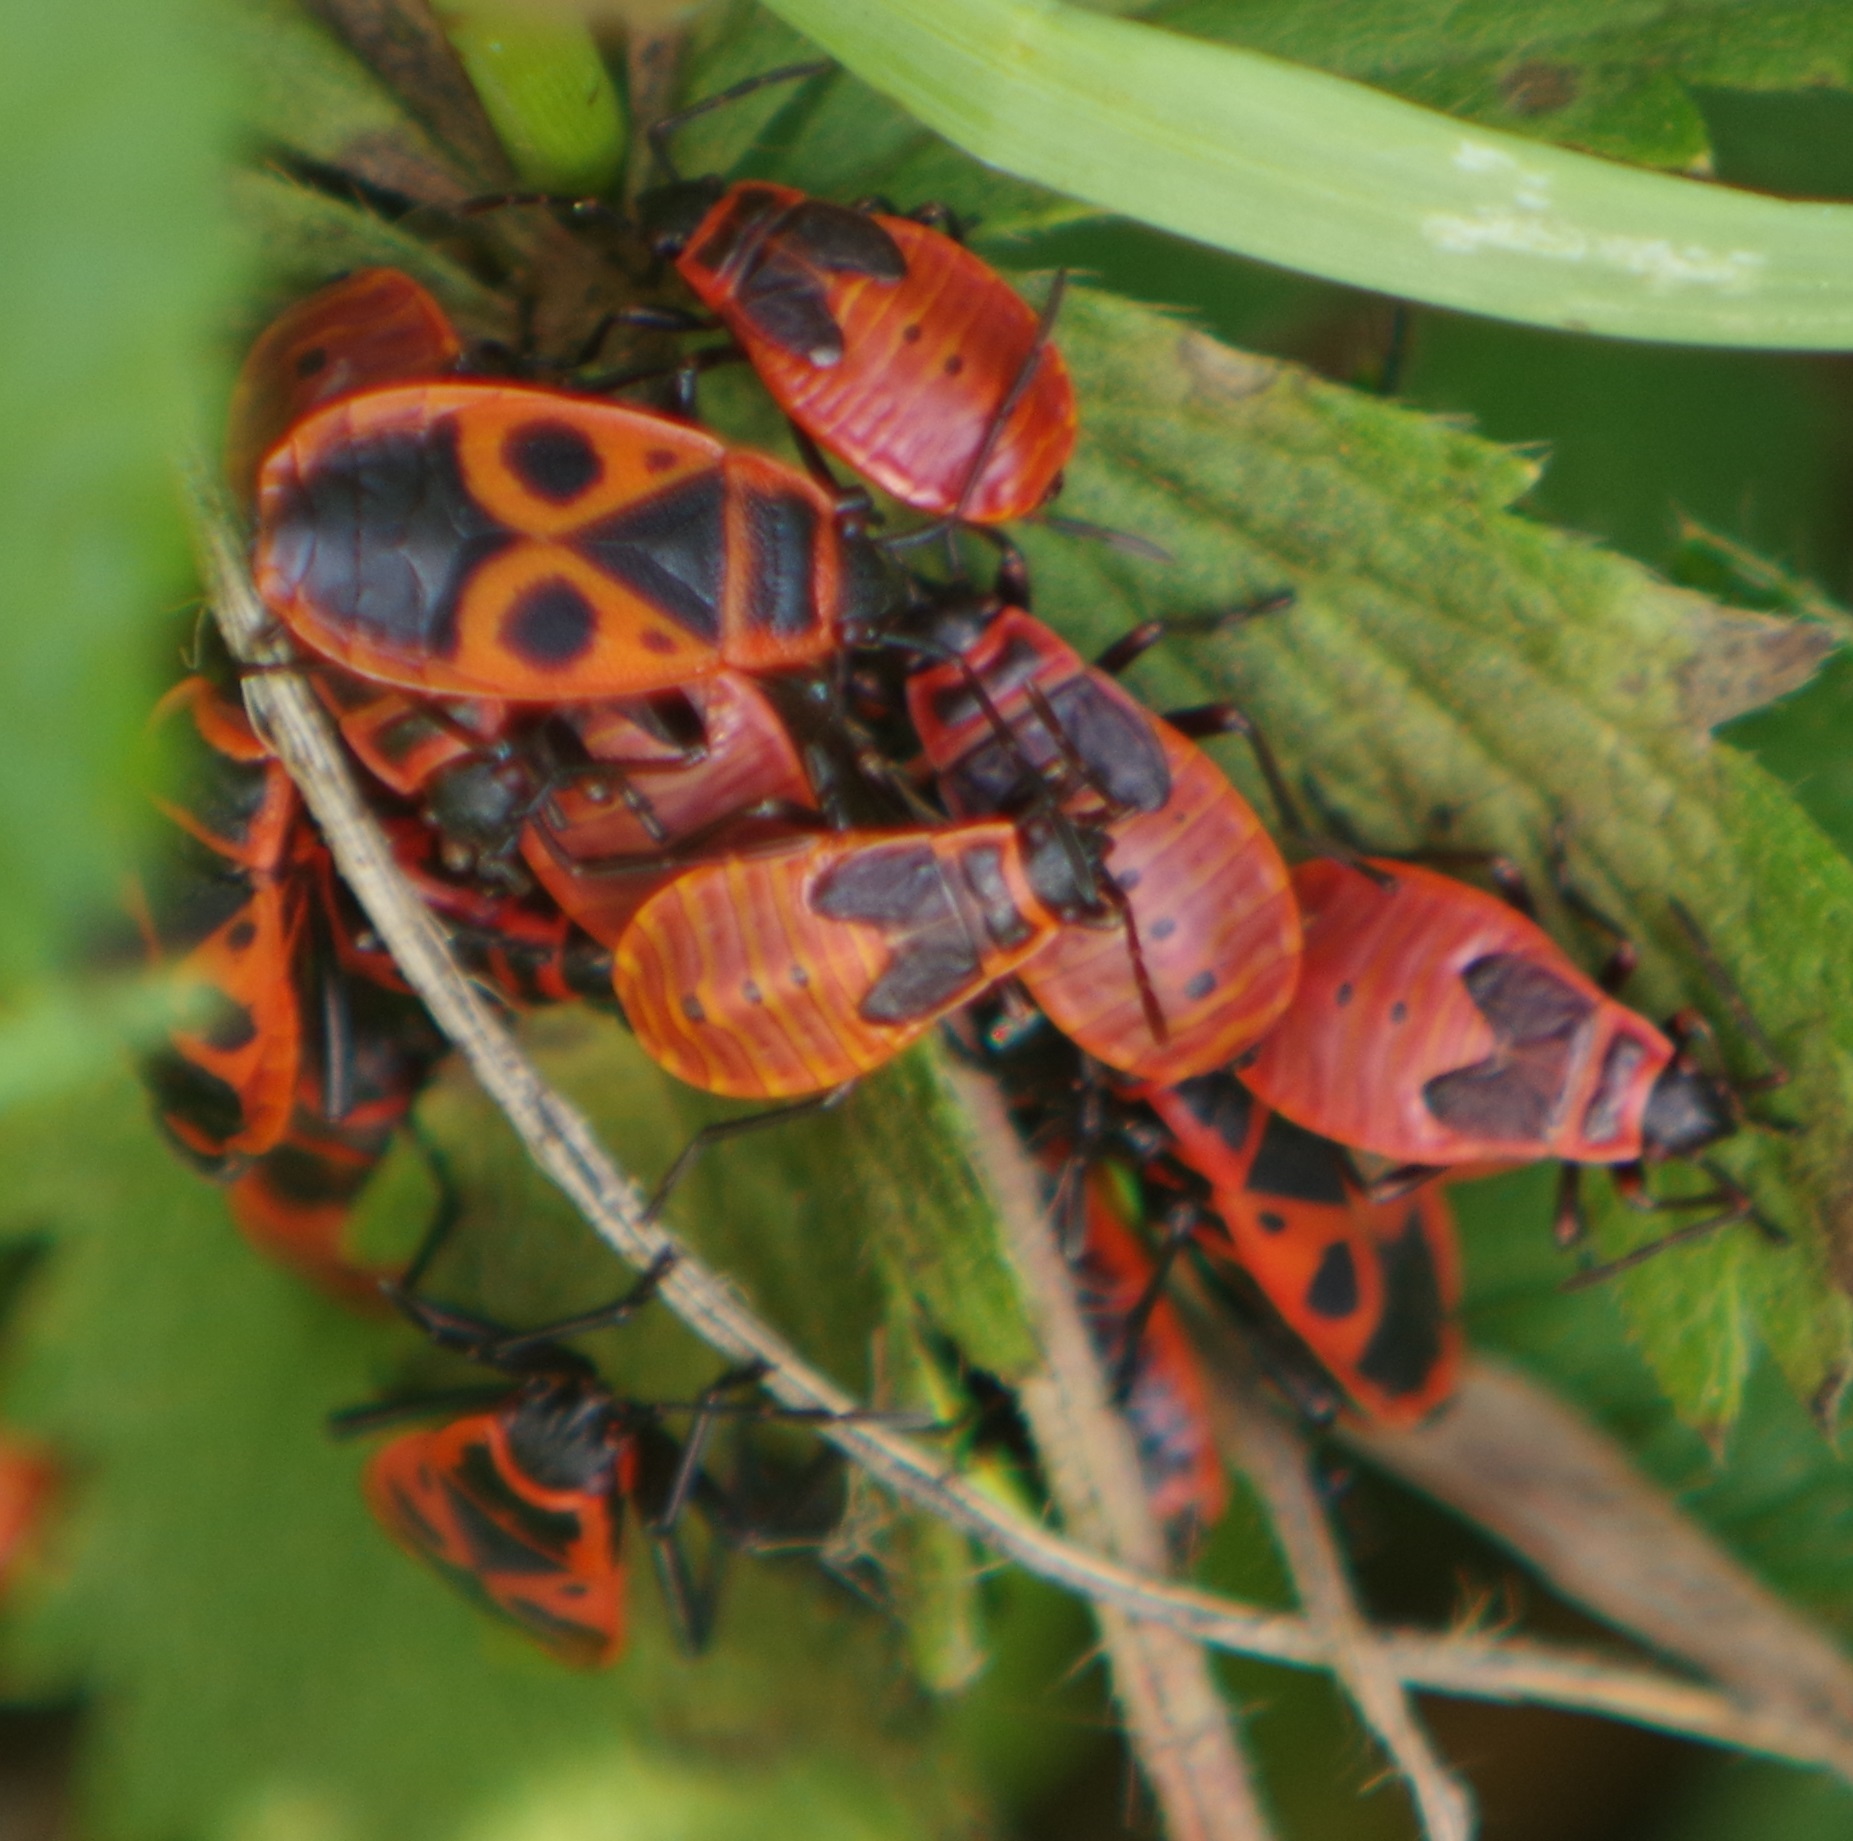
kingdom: Animalia
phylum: Arthropoda
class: Insecta
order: Hemiptera
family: Pyrrhocoridae
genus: Pyrrhocoris
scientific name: Pyrrhocoris apterus
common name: Firebug
